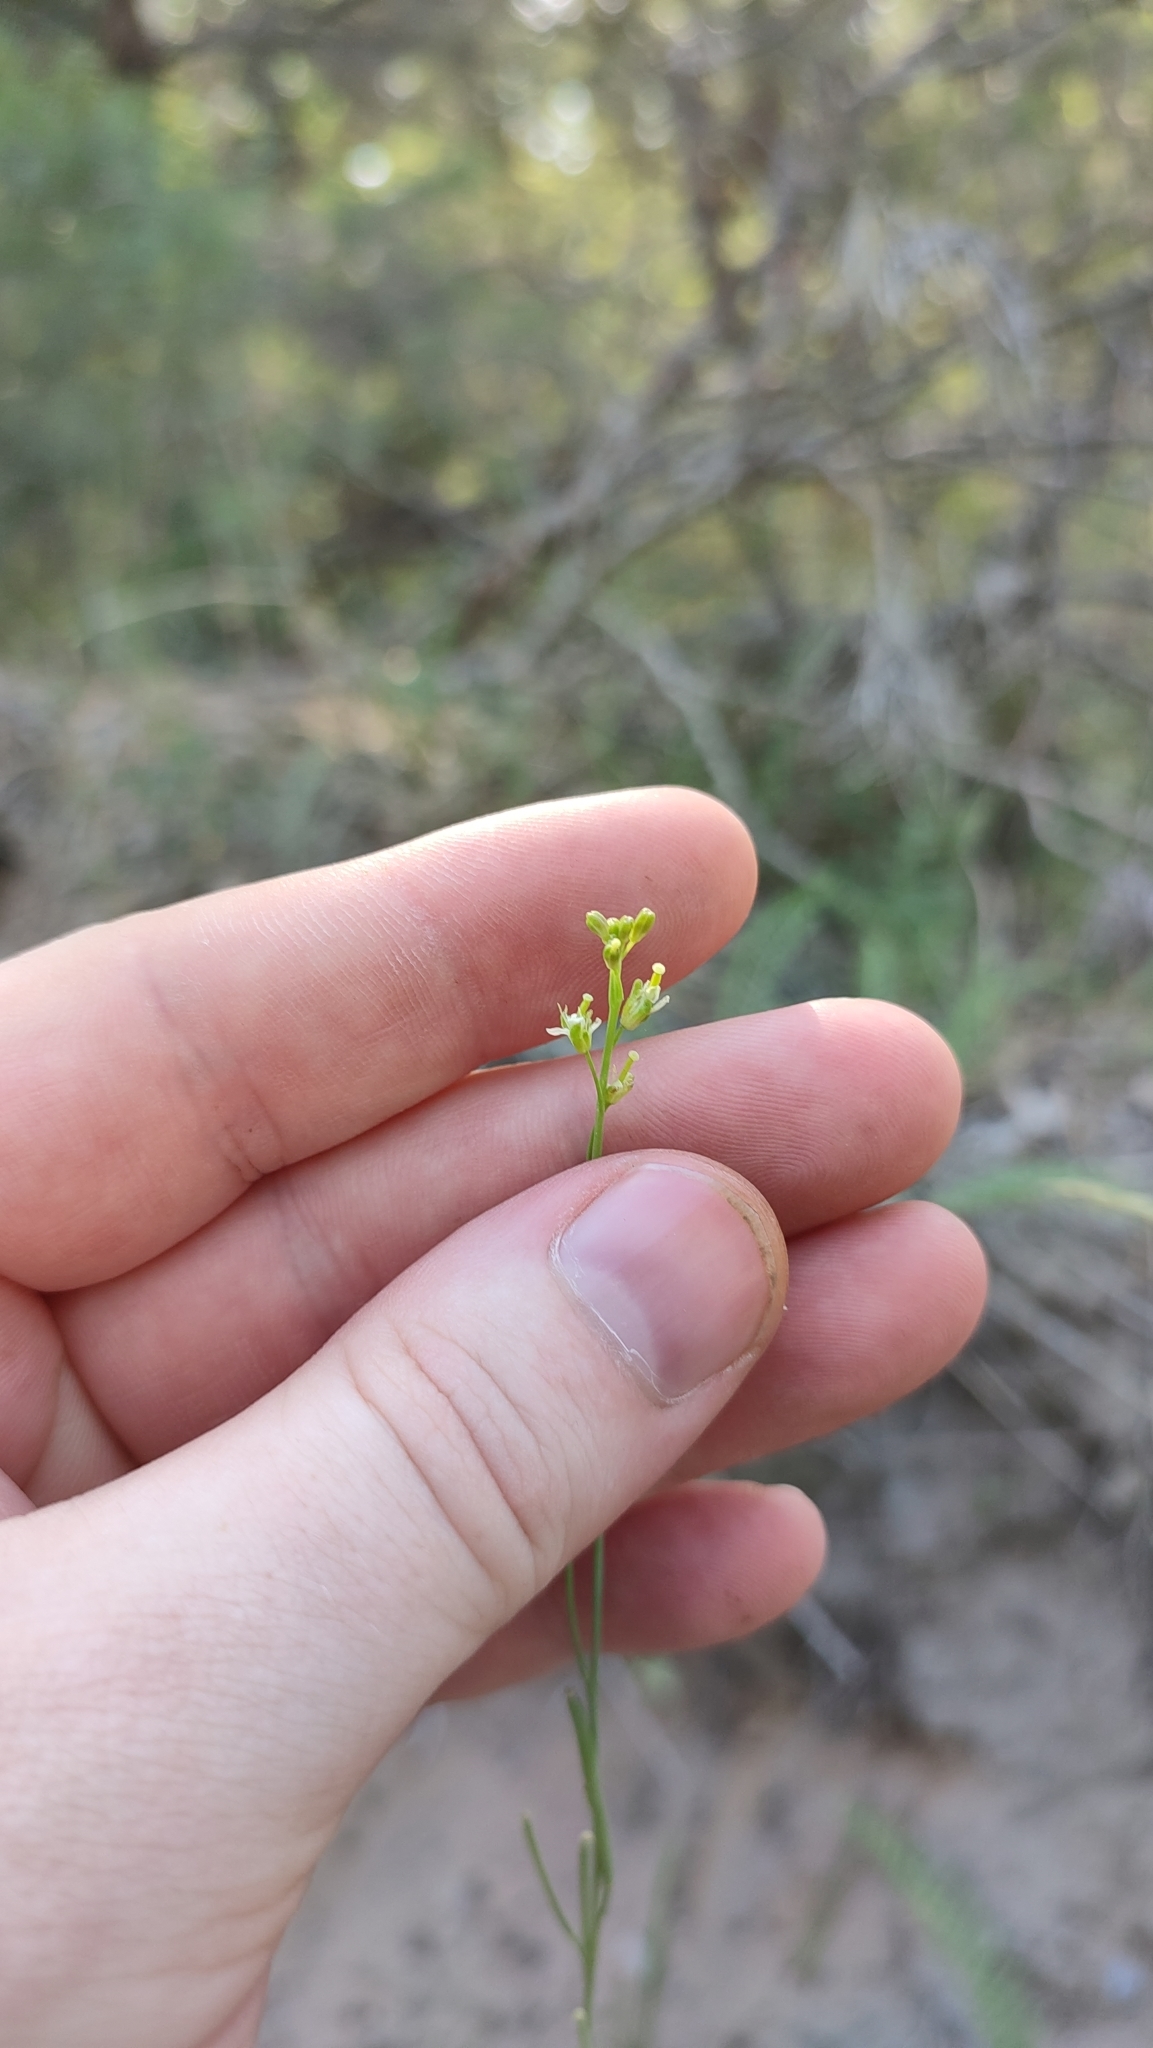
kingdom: Plantae
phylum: Tracheophyta
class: Magnoliopsida
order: Brassicales
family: Brassicaceae
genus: Turritis
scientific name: Turritis glabra
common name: Tower rockcress
